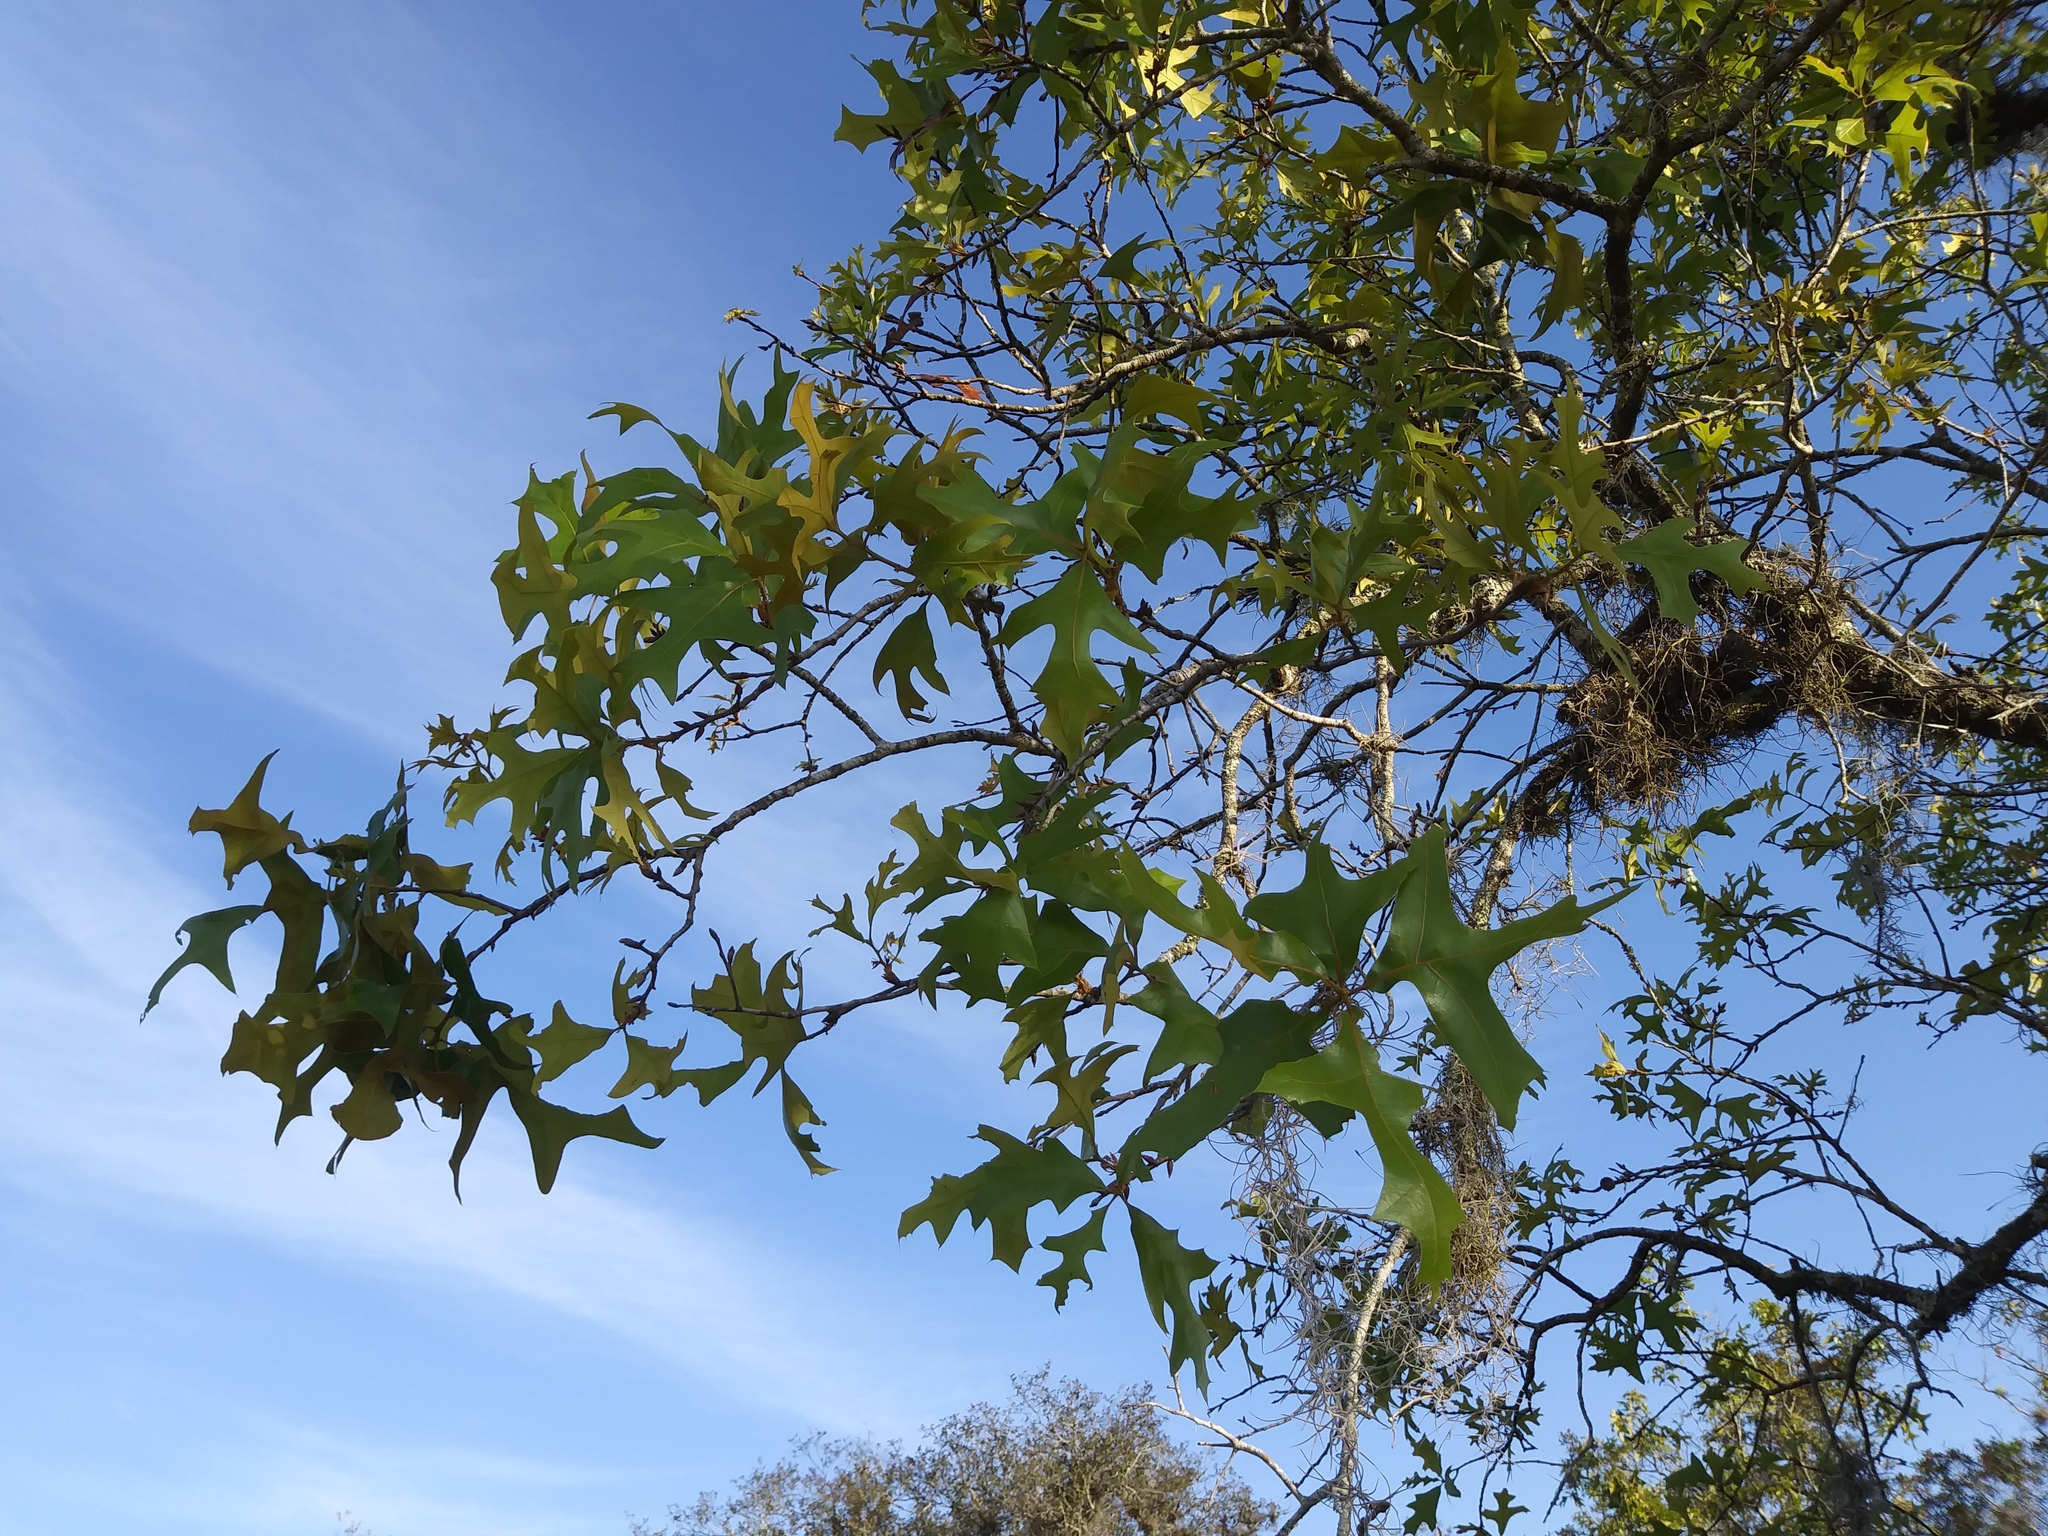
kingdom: Plantae
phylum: Tracheophyta
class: Magnoliopsida
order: Fagales
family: Fagaceae
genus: Quercus
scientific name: Quercus laevis
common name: Turkey oak
